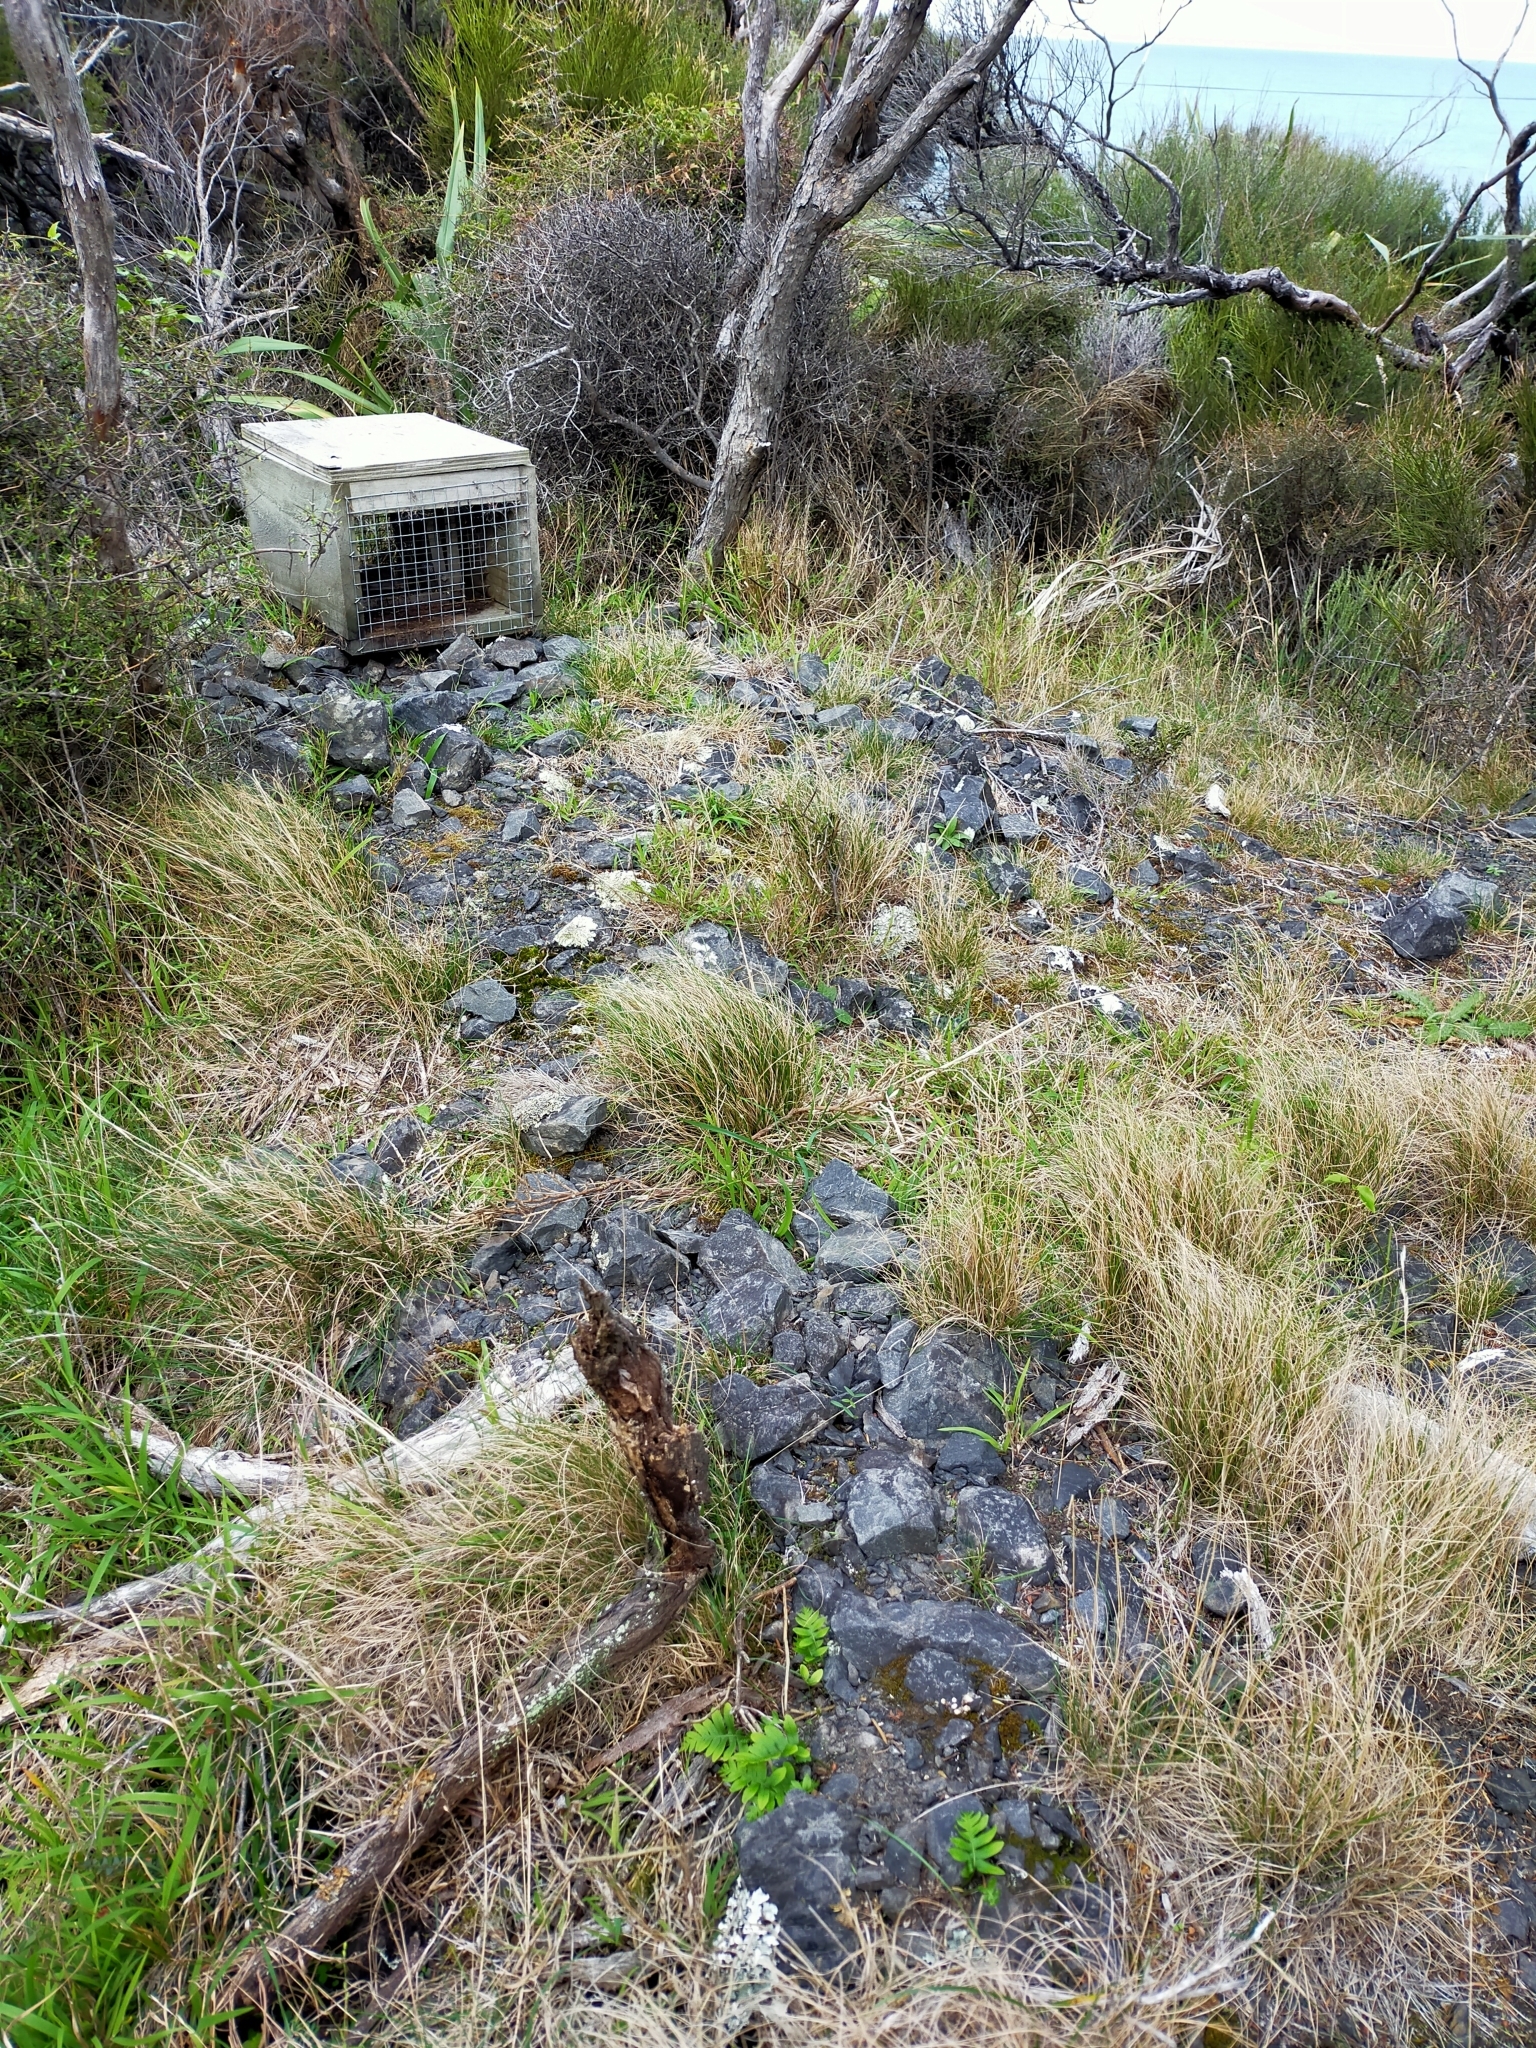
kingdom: Plantae
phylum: Tracheophyta
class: Polypodiopsida
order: Polypodiales
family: Polypodiaceae
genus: Polypodium
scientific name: Polypodium vulgare
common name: Common polypody
